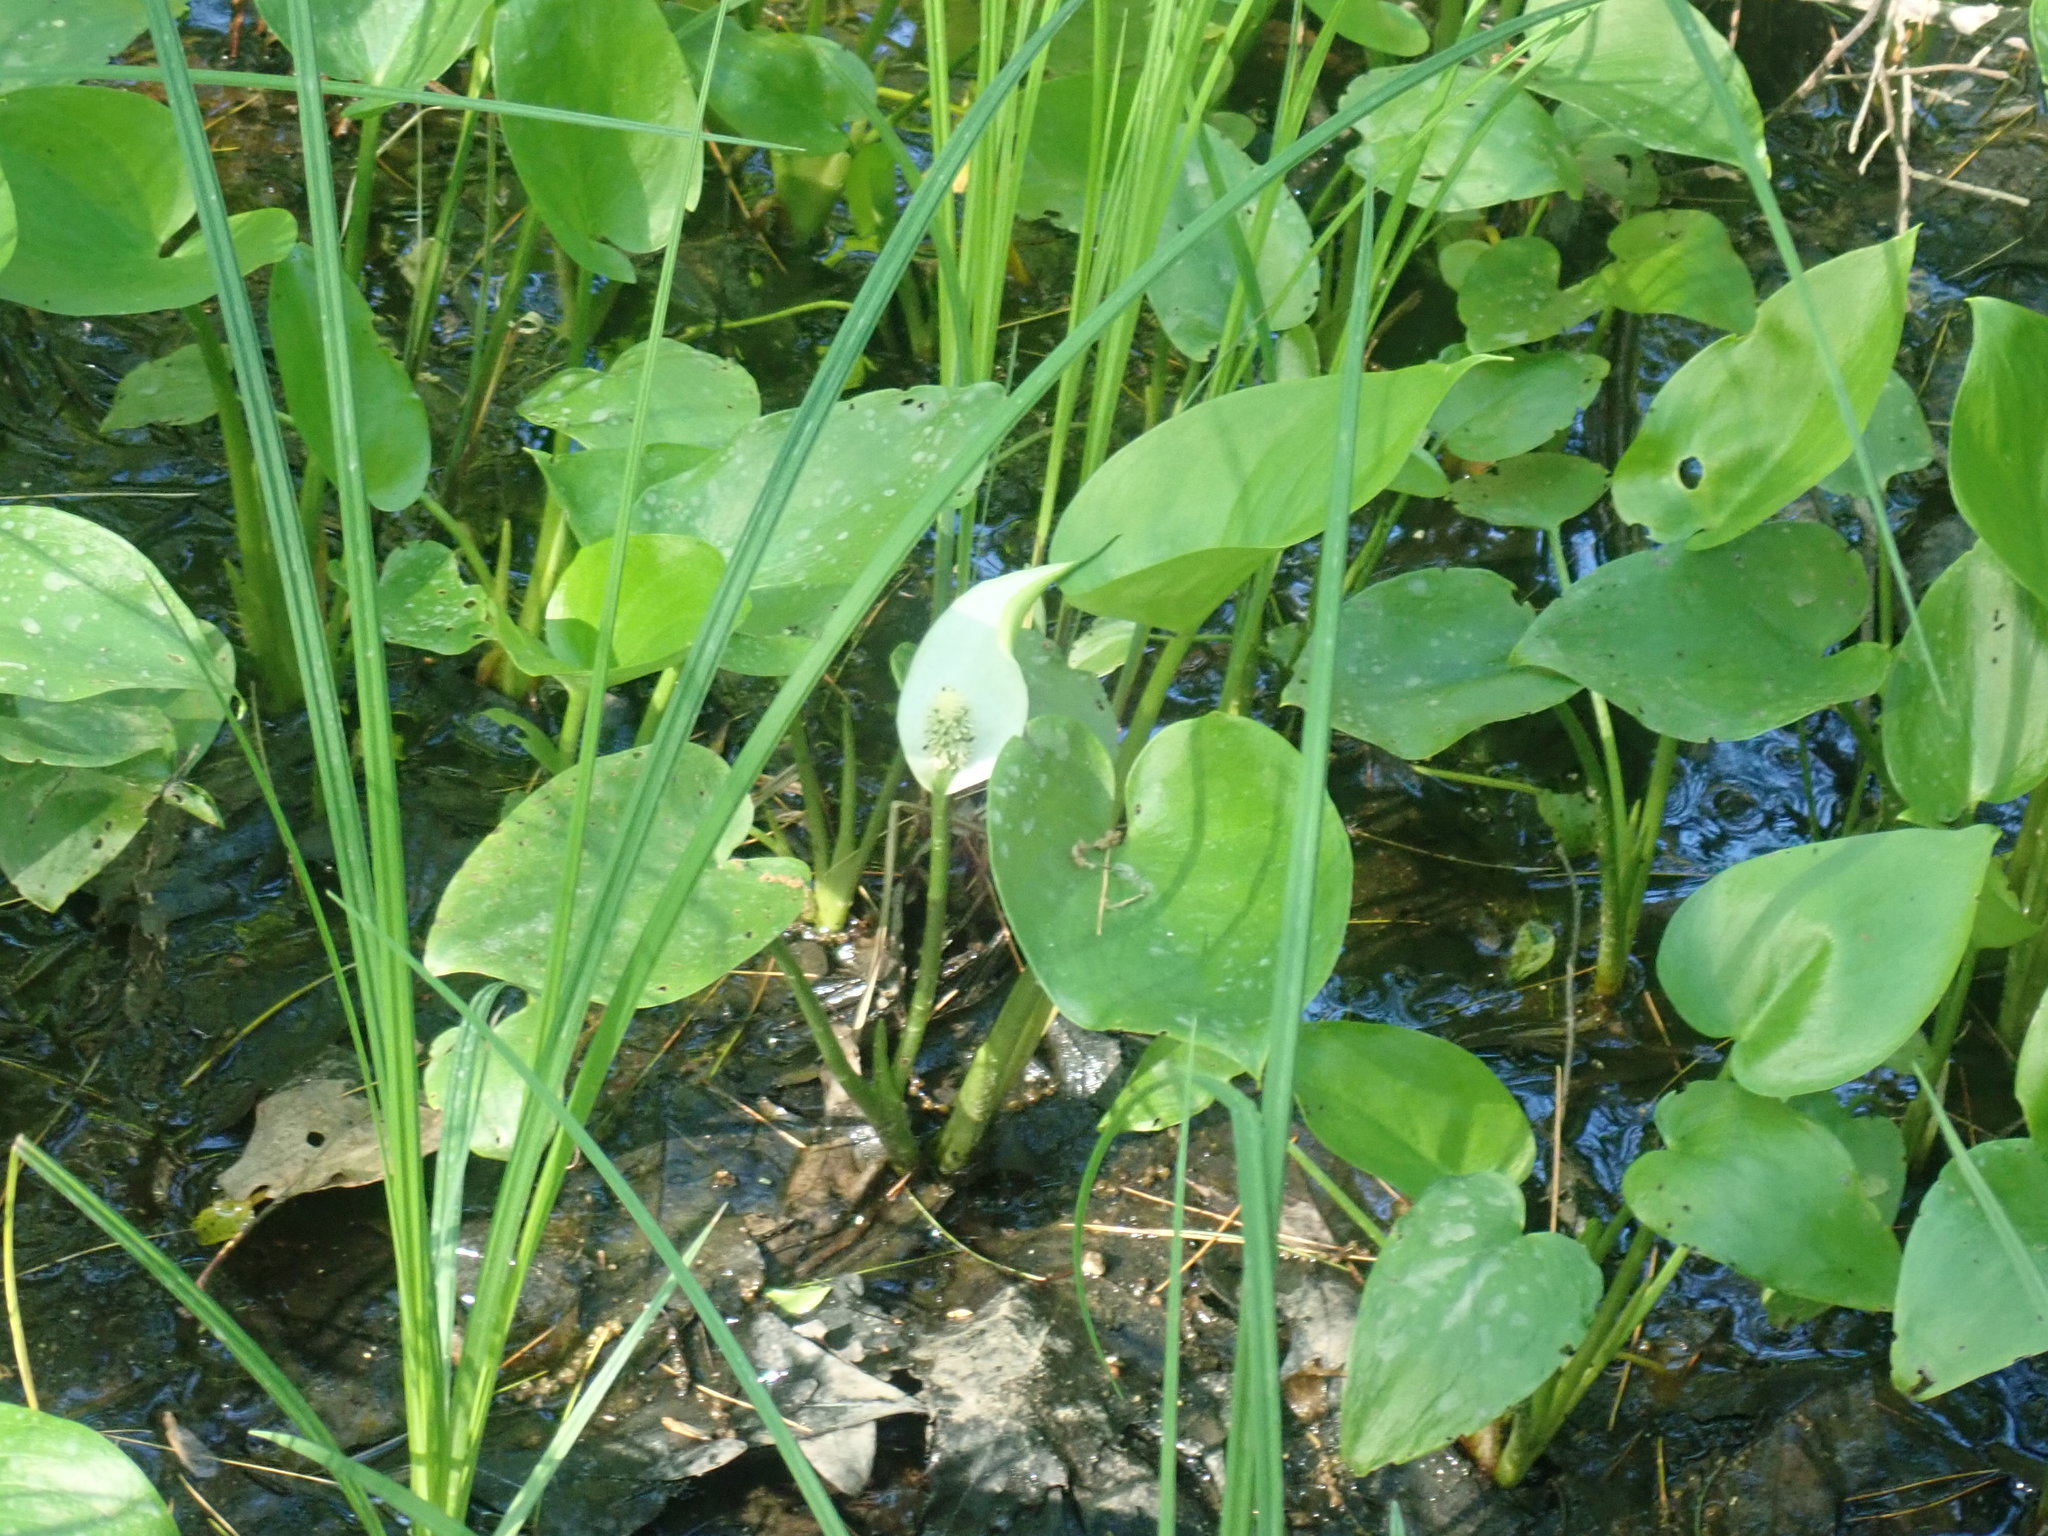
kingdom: Plantae
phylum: Tracheophyta
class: Liliopsida
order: Alismatales
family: Araceae
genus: Calla
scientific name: Calla palustris
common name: Bog arum
